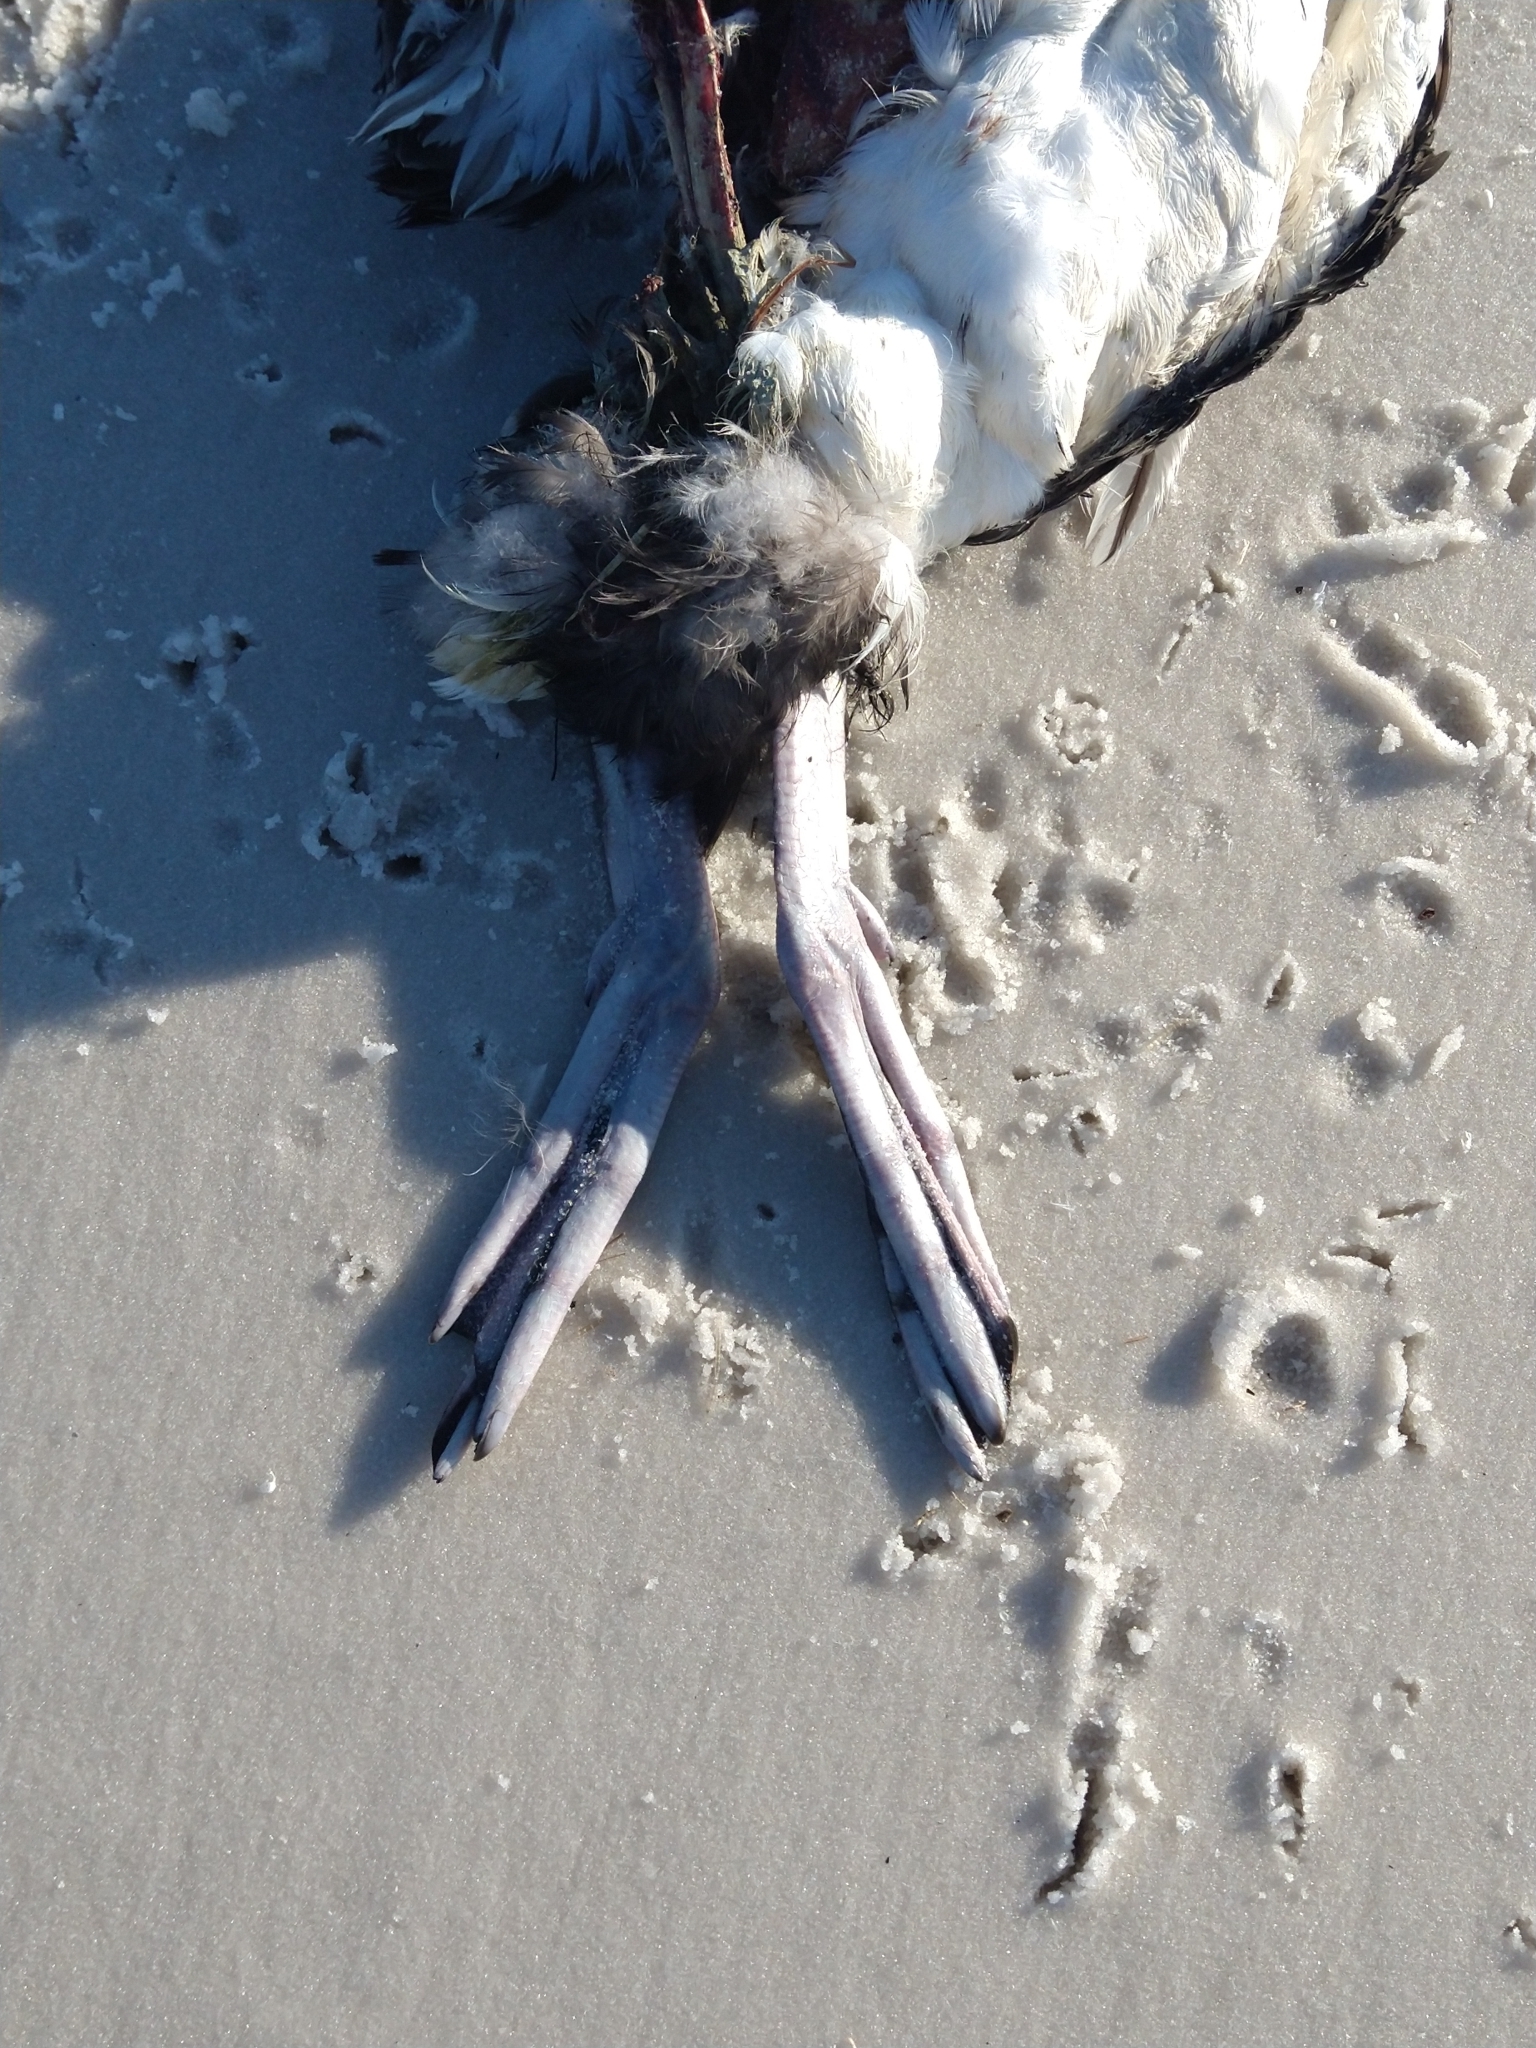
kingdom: Animalia
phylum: Chordata
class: Aves
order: Gaviiformes
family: Gaviidae
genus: Gavia
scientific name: Gavia immer
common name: Common loon
